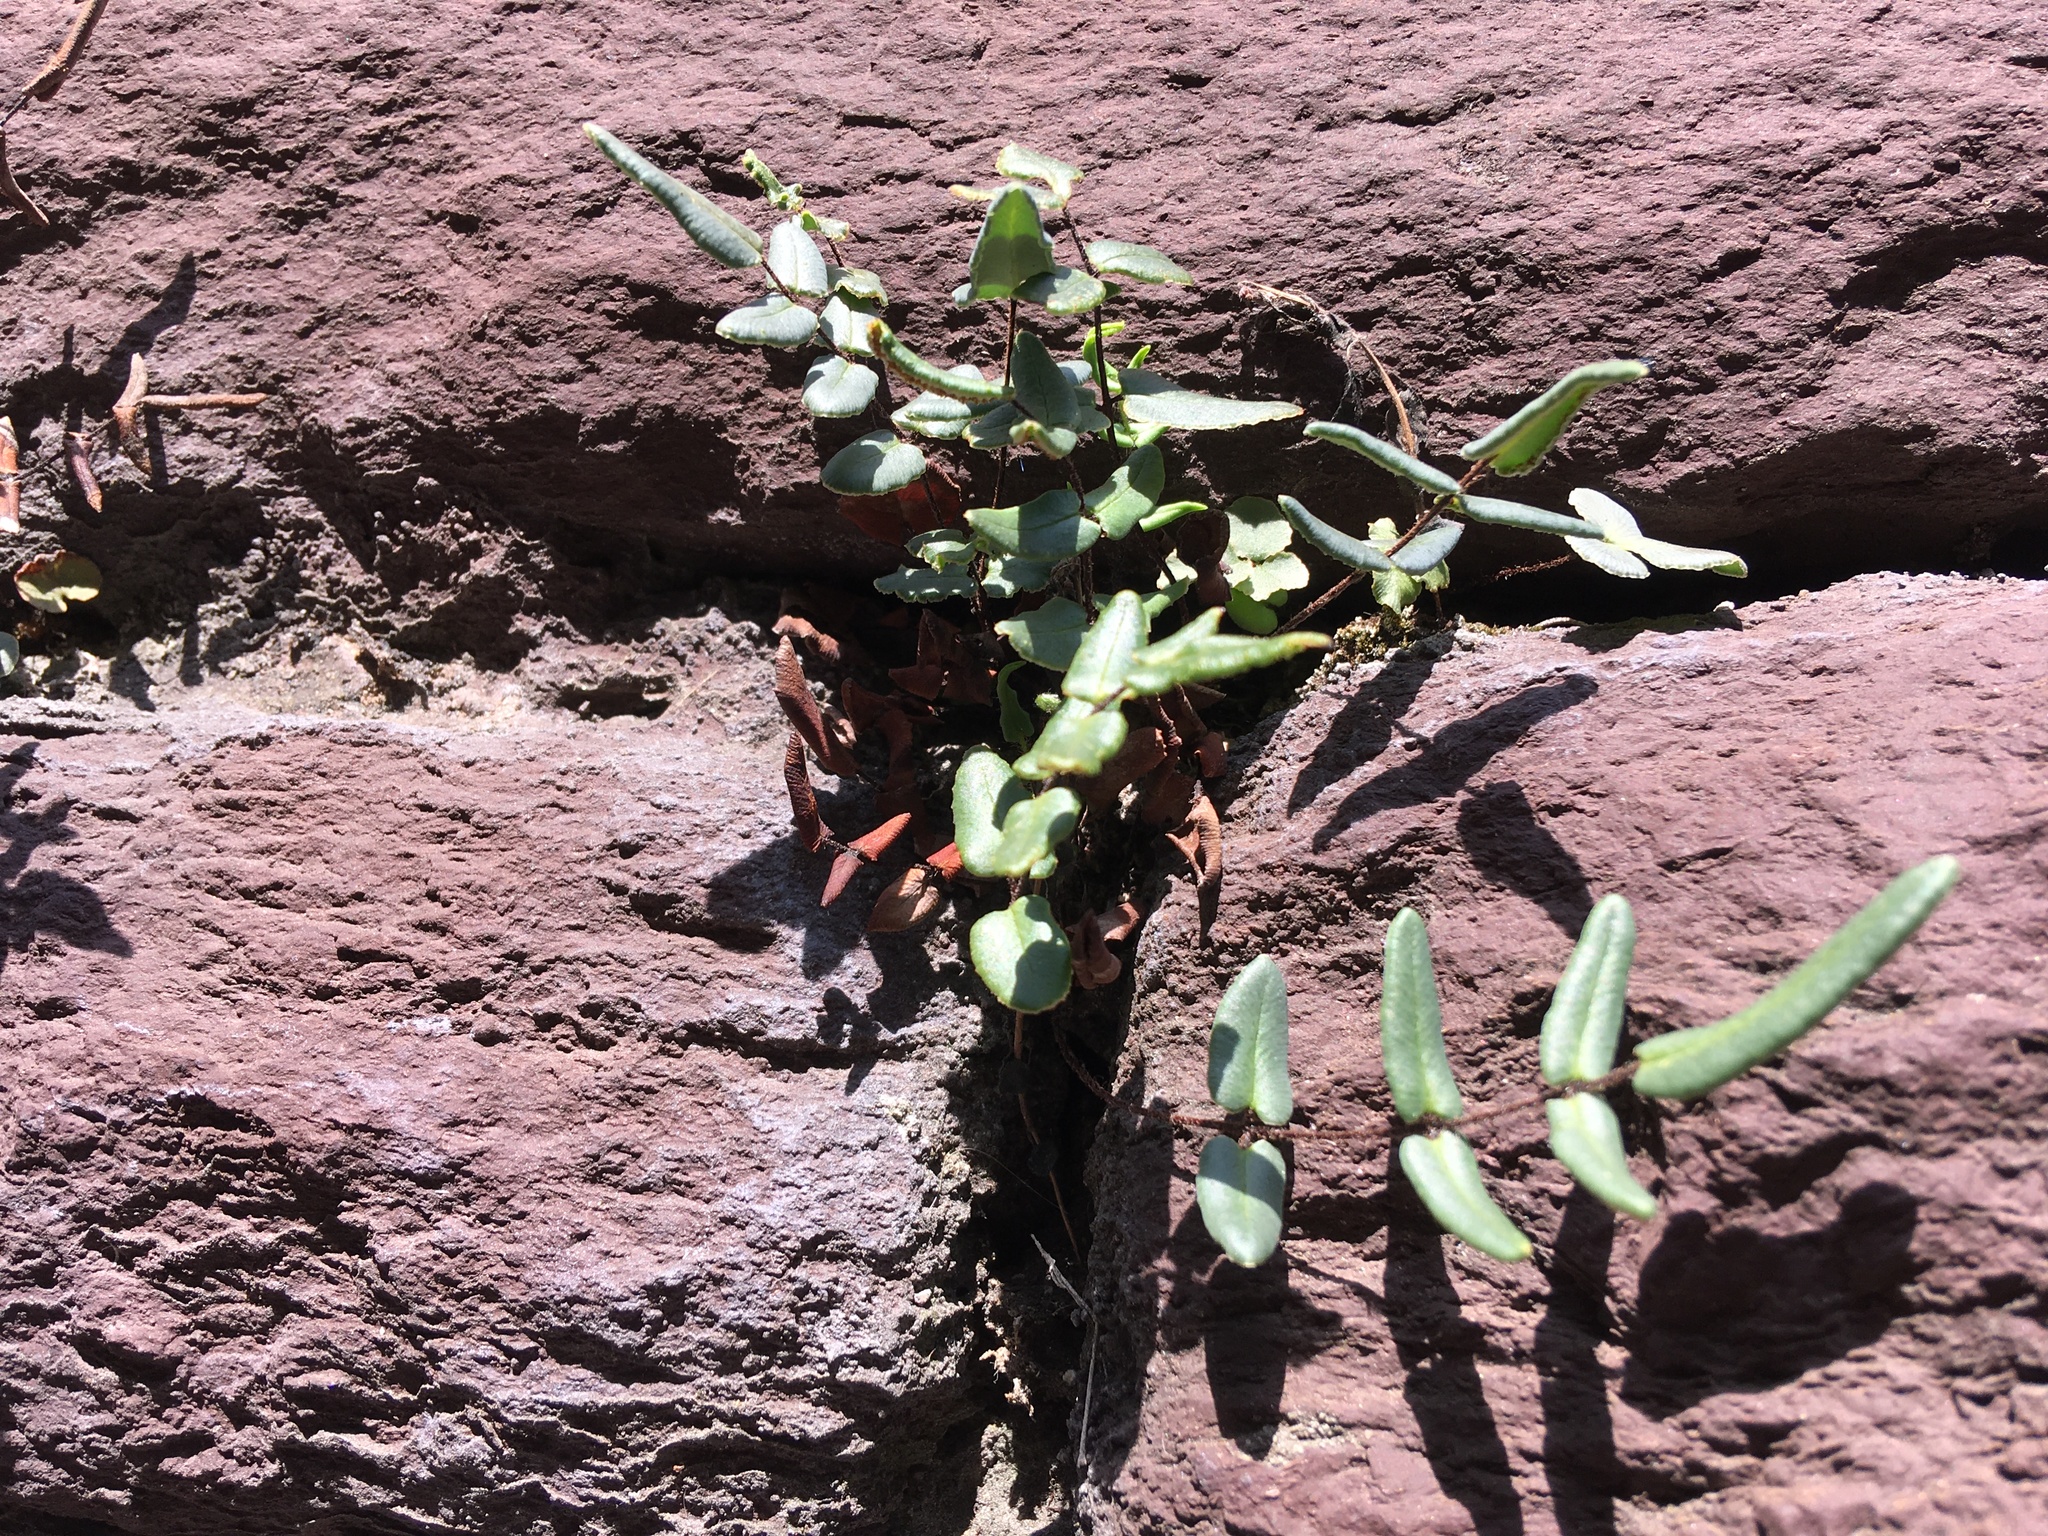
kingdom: Plantae
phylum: Tracheophyta
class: Polypodiopsida
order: Polypodiales
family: Pteridaceae
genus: Pellaea
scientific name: Pellaea atropurpurea
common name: Hairy cliffbrake
